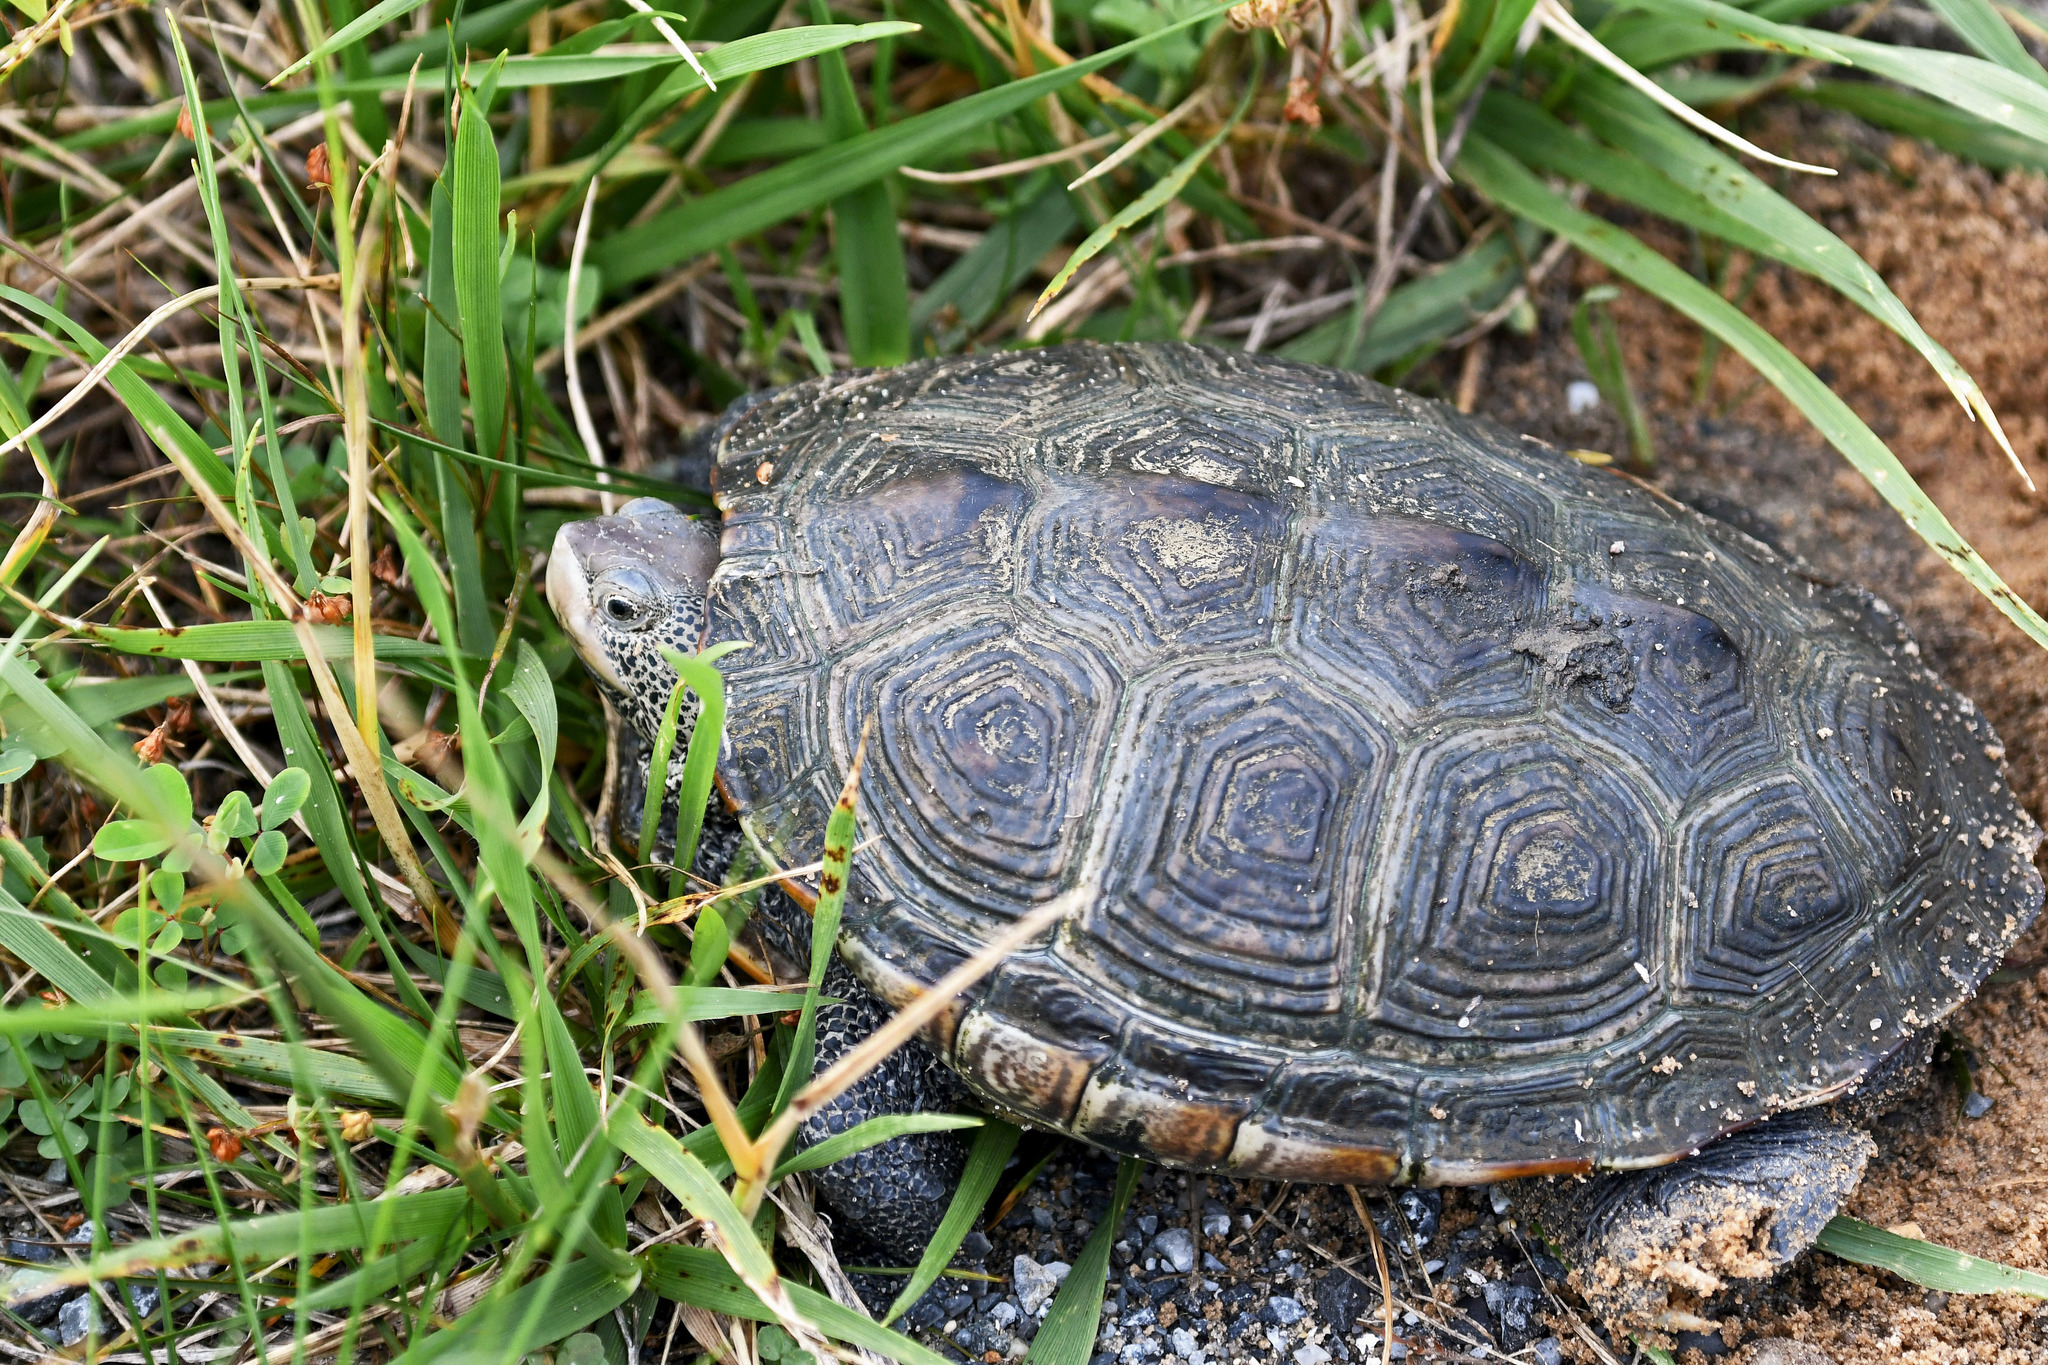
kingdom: Animalia
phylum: Chordata
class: Testudines
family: Emydidae
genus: Malaclemys
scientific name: Malaclemys terrapin
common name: Diamondback terrapin
